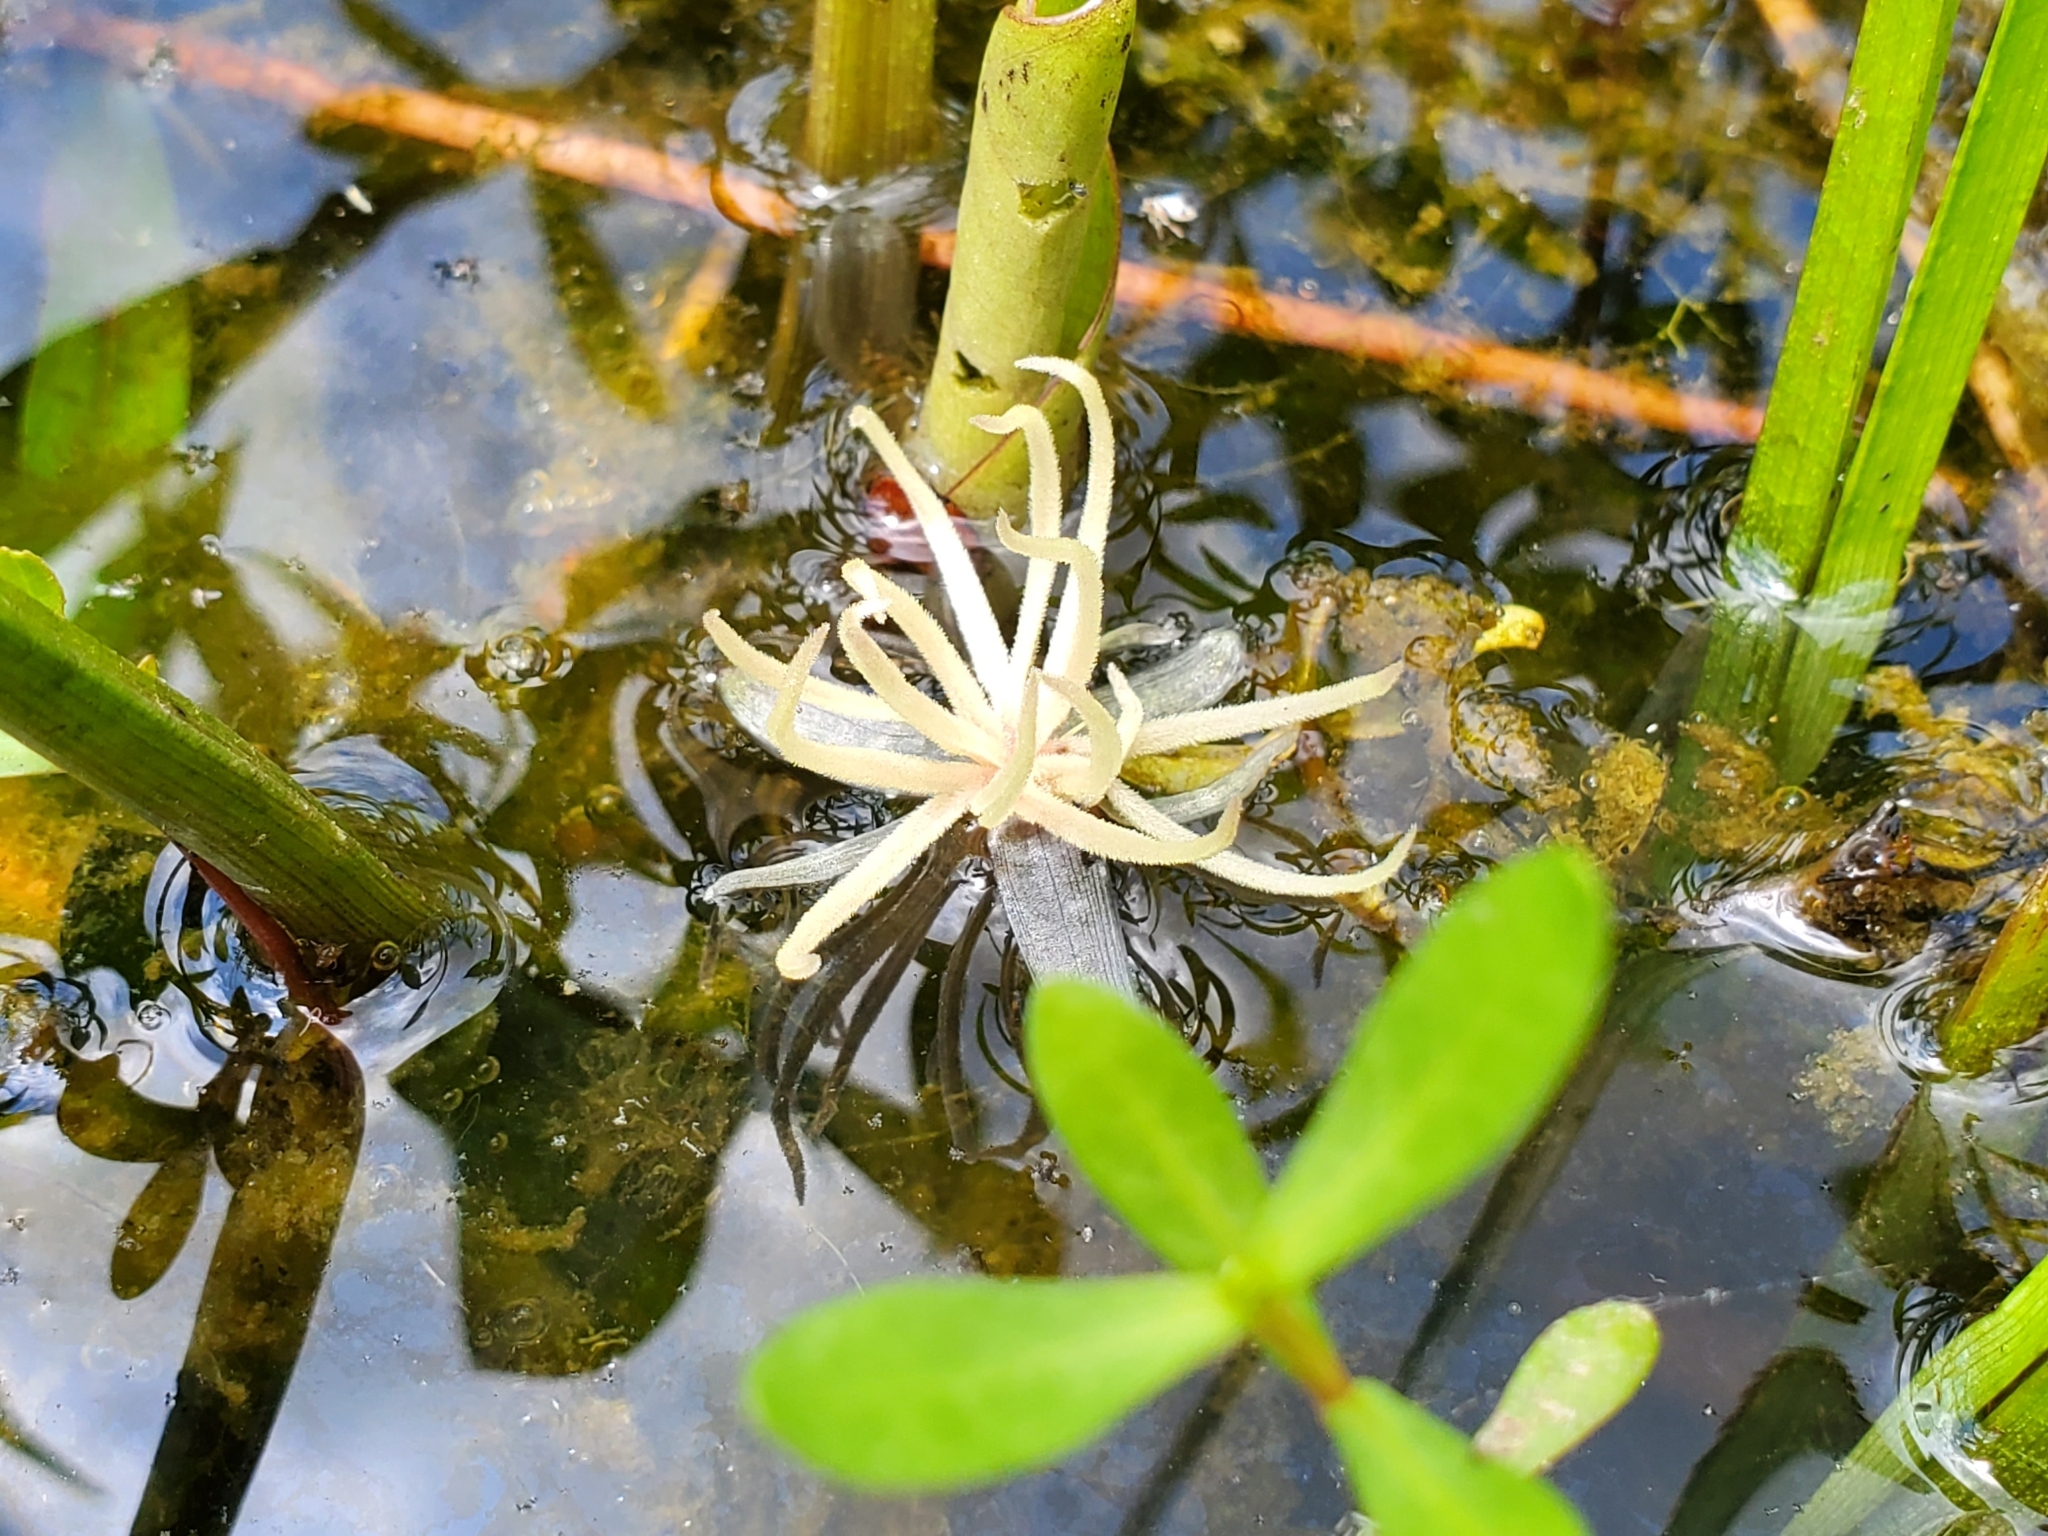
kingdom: Plantae
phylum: Tracheophyta
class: Liliopsida
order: Alismatales
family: Hydrocharitaceae
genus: Hydrocharis
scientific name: Hydrocharis spongia
